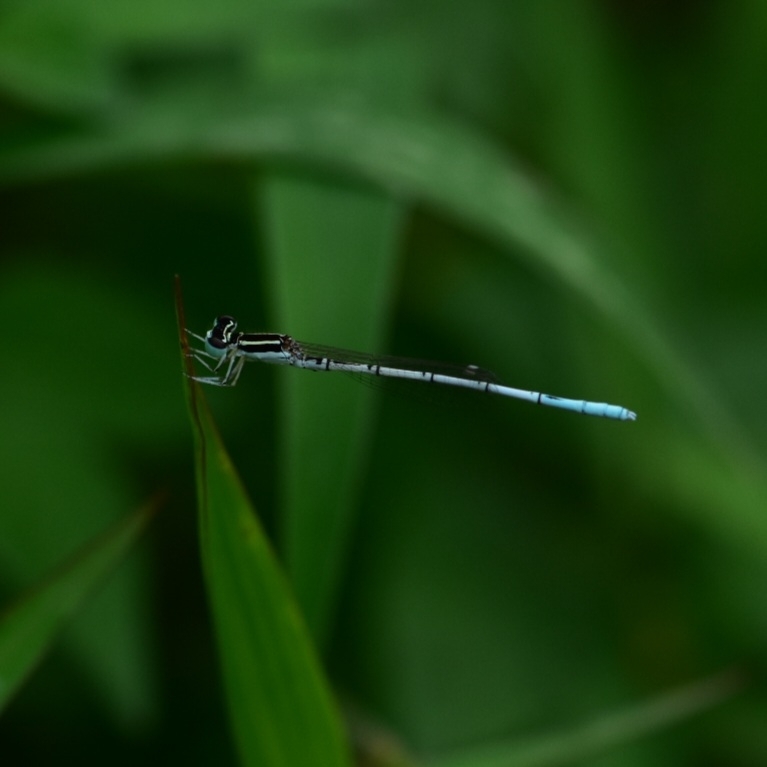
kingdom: Animalia
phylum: Arthropoda
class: Insecta
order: Odonata
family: Coenagrionidae
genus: Agriocnemis
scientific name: Agriocnemis pieris
